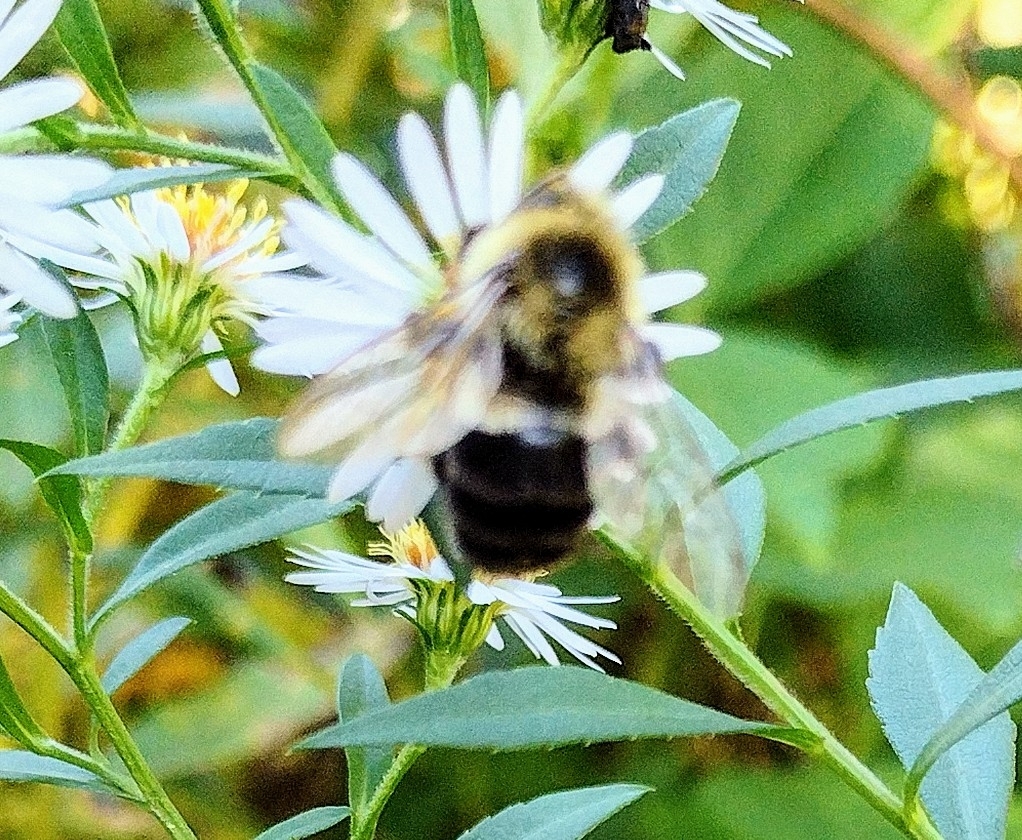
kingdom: Animalia
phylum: Arthropoda
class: Insecta
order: Hymenoptera
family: Apidae
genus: Bombus
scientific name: Bombus impatiens
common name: Common eastern bumble bee
